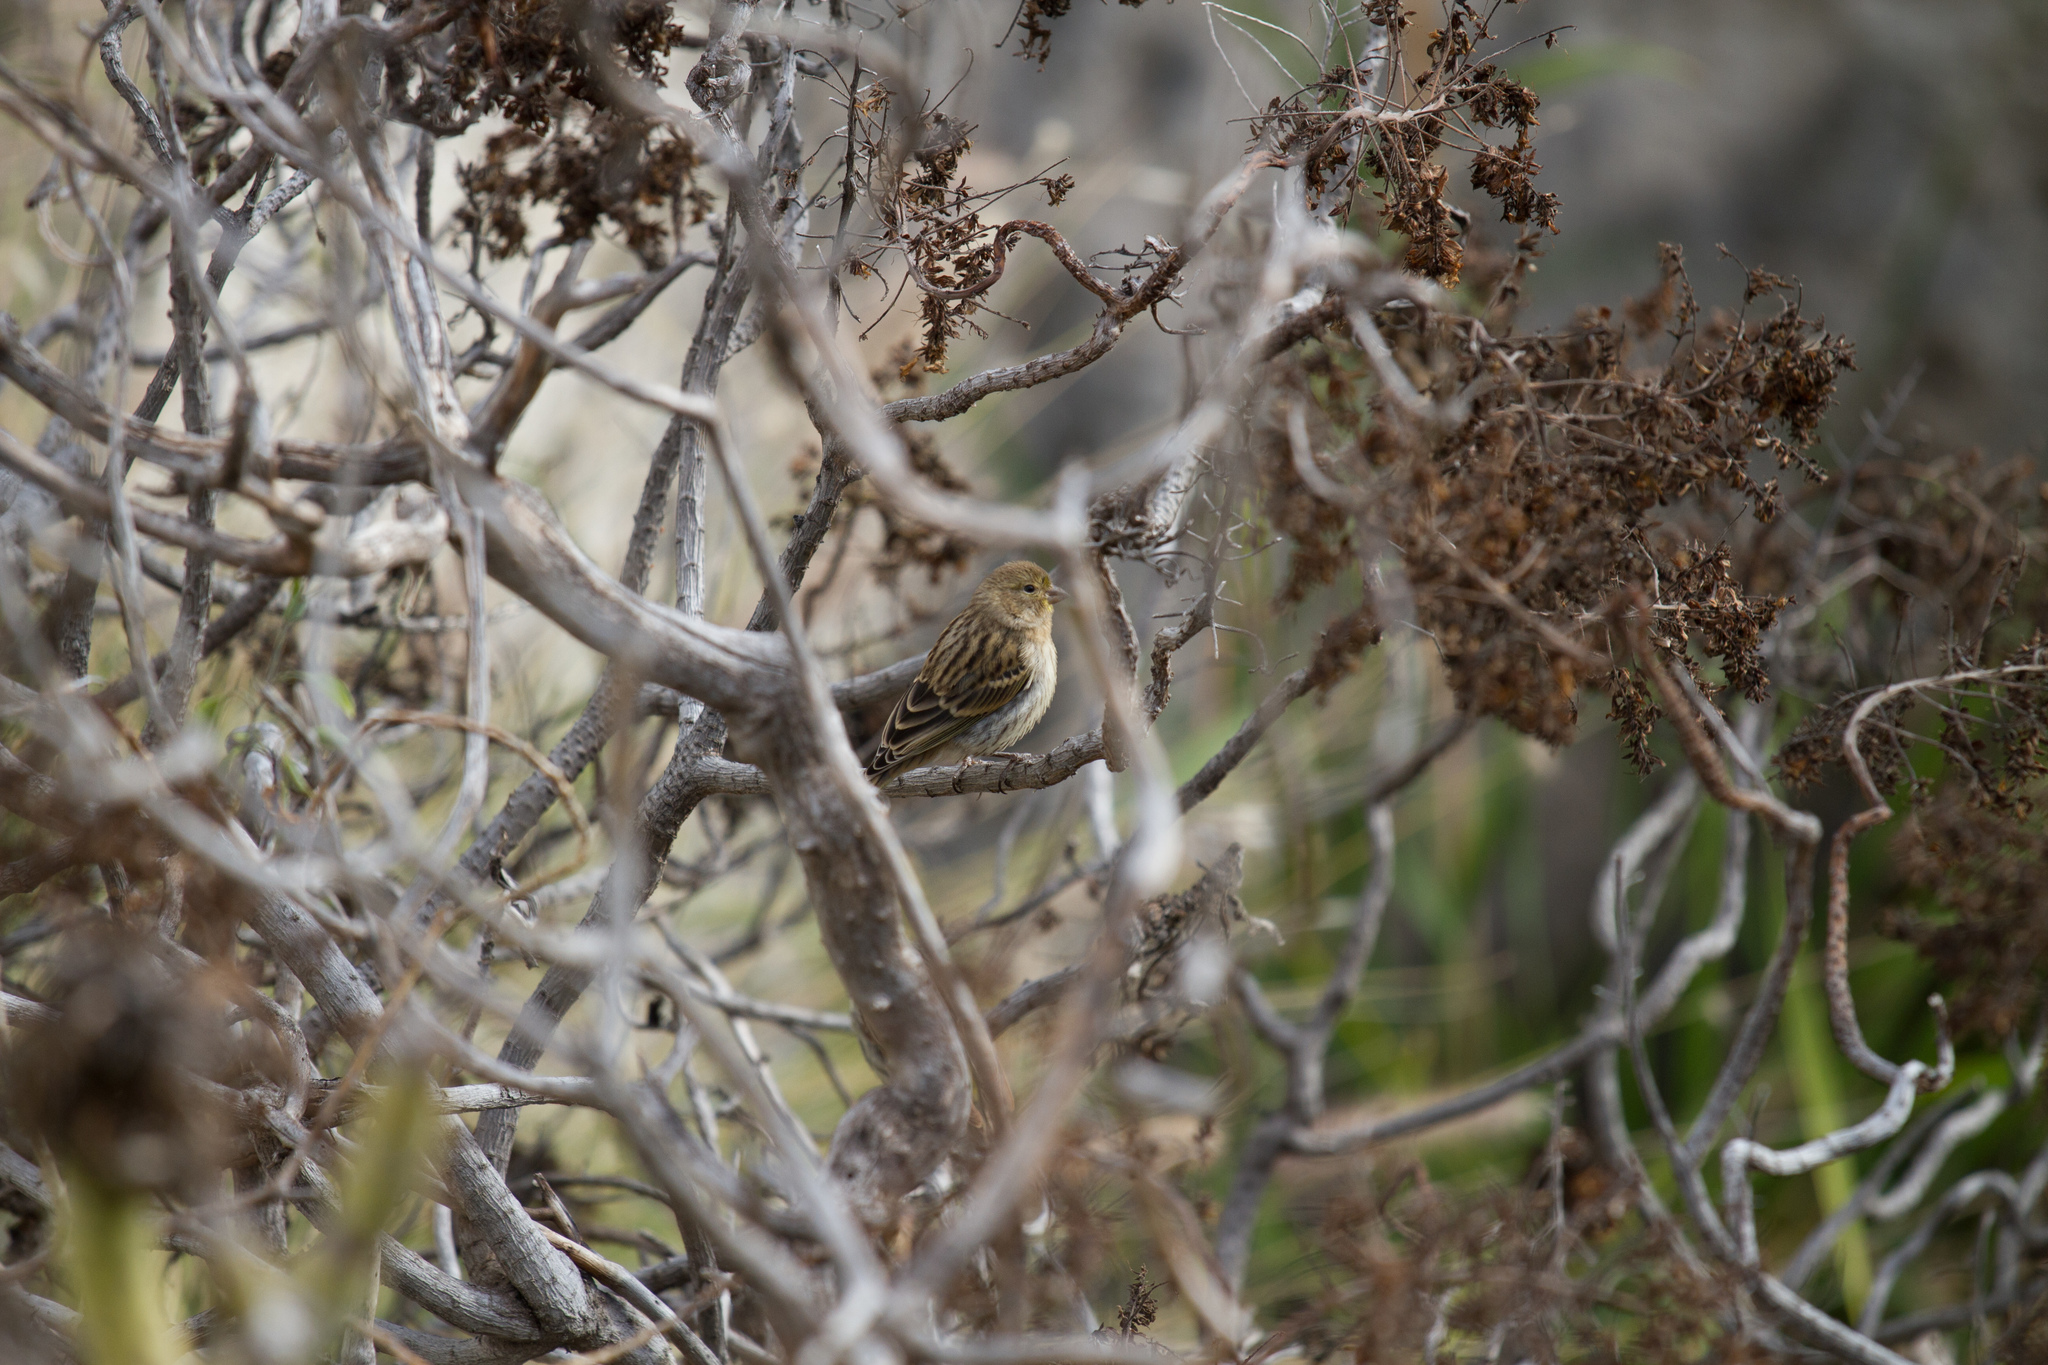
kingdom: Animalia
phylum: Chordata
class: Aves
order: Passeriformes
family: Fringillidae
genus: Serinus
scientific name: Serinus canaria
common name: Atlantic canary
